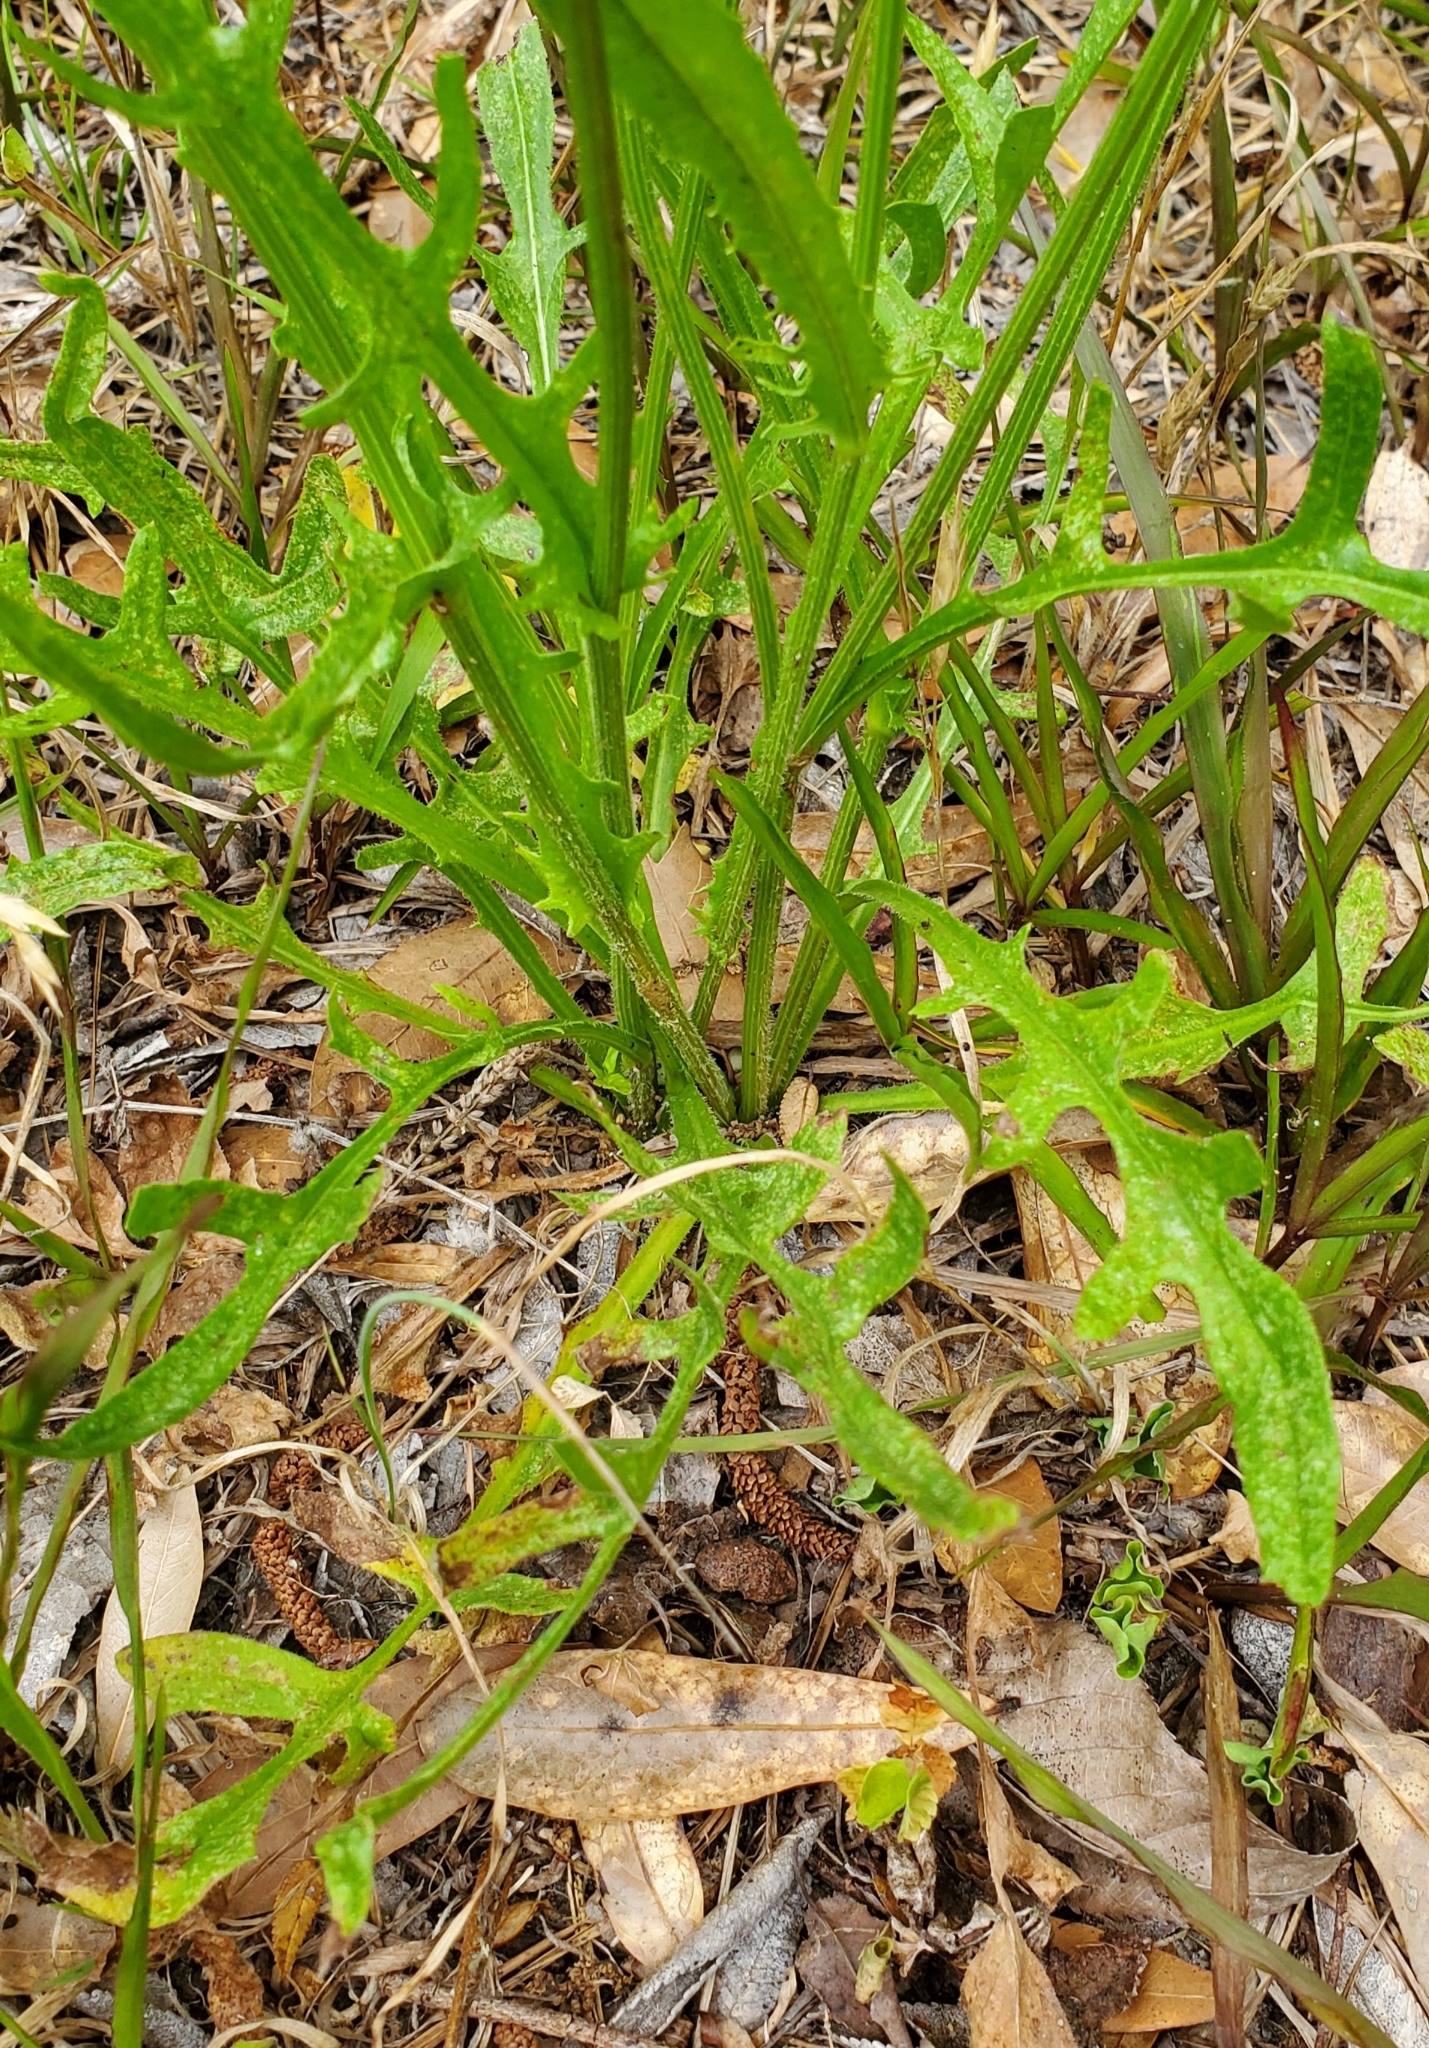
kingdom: Plantae
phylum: Tracheophyta
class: Magnoliopsida
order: Asterales
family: Asteraceae
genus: Pyrrhopappus
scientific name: Pyrrhopappus carolinianus
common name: Carolina desert-chicory
